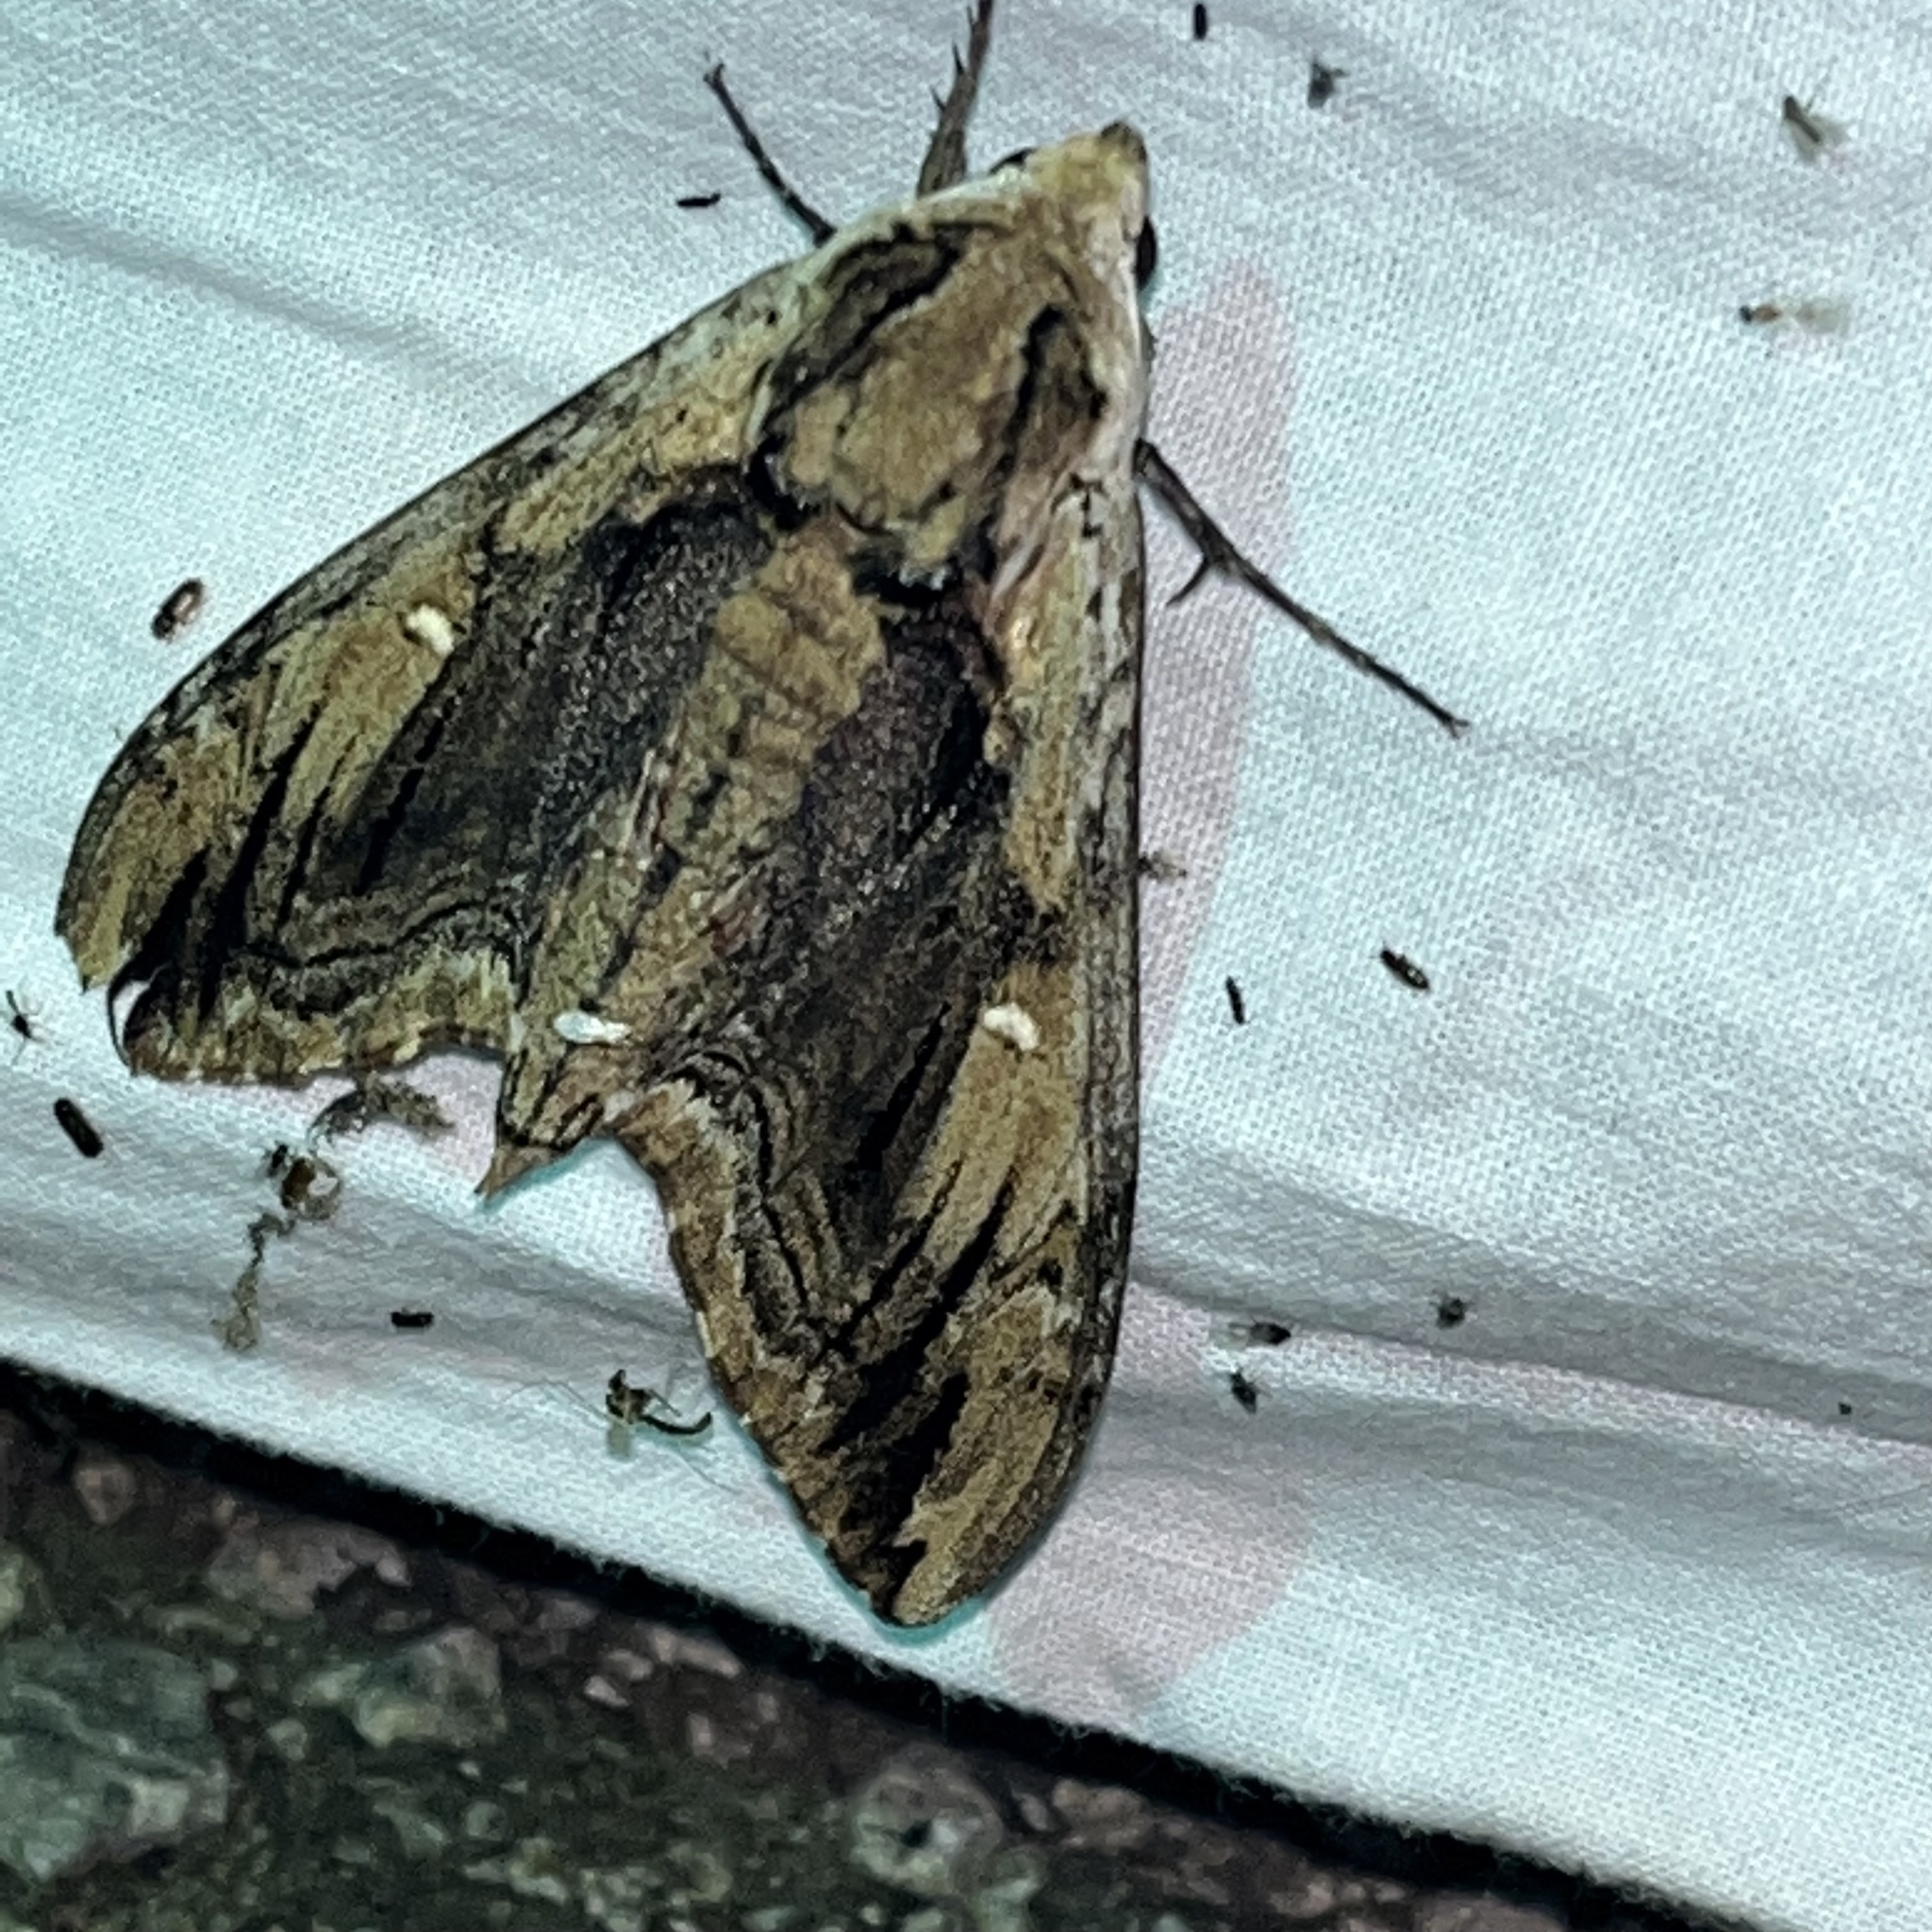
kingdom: Animalia
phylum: Arthropoda
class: Insecta
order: Lepidoptera
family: Sphingidae
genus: Ceratomia
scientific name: Ceratomia amyntor
